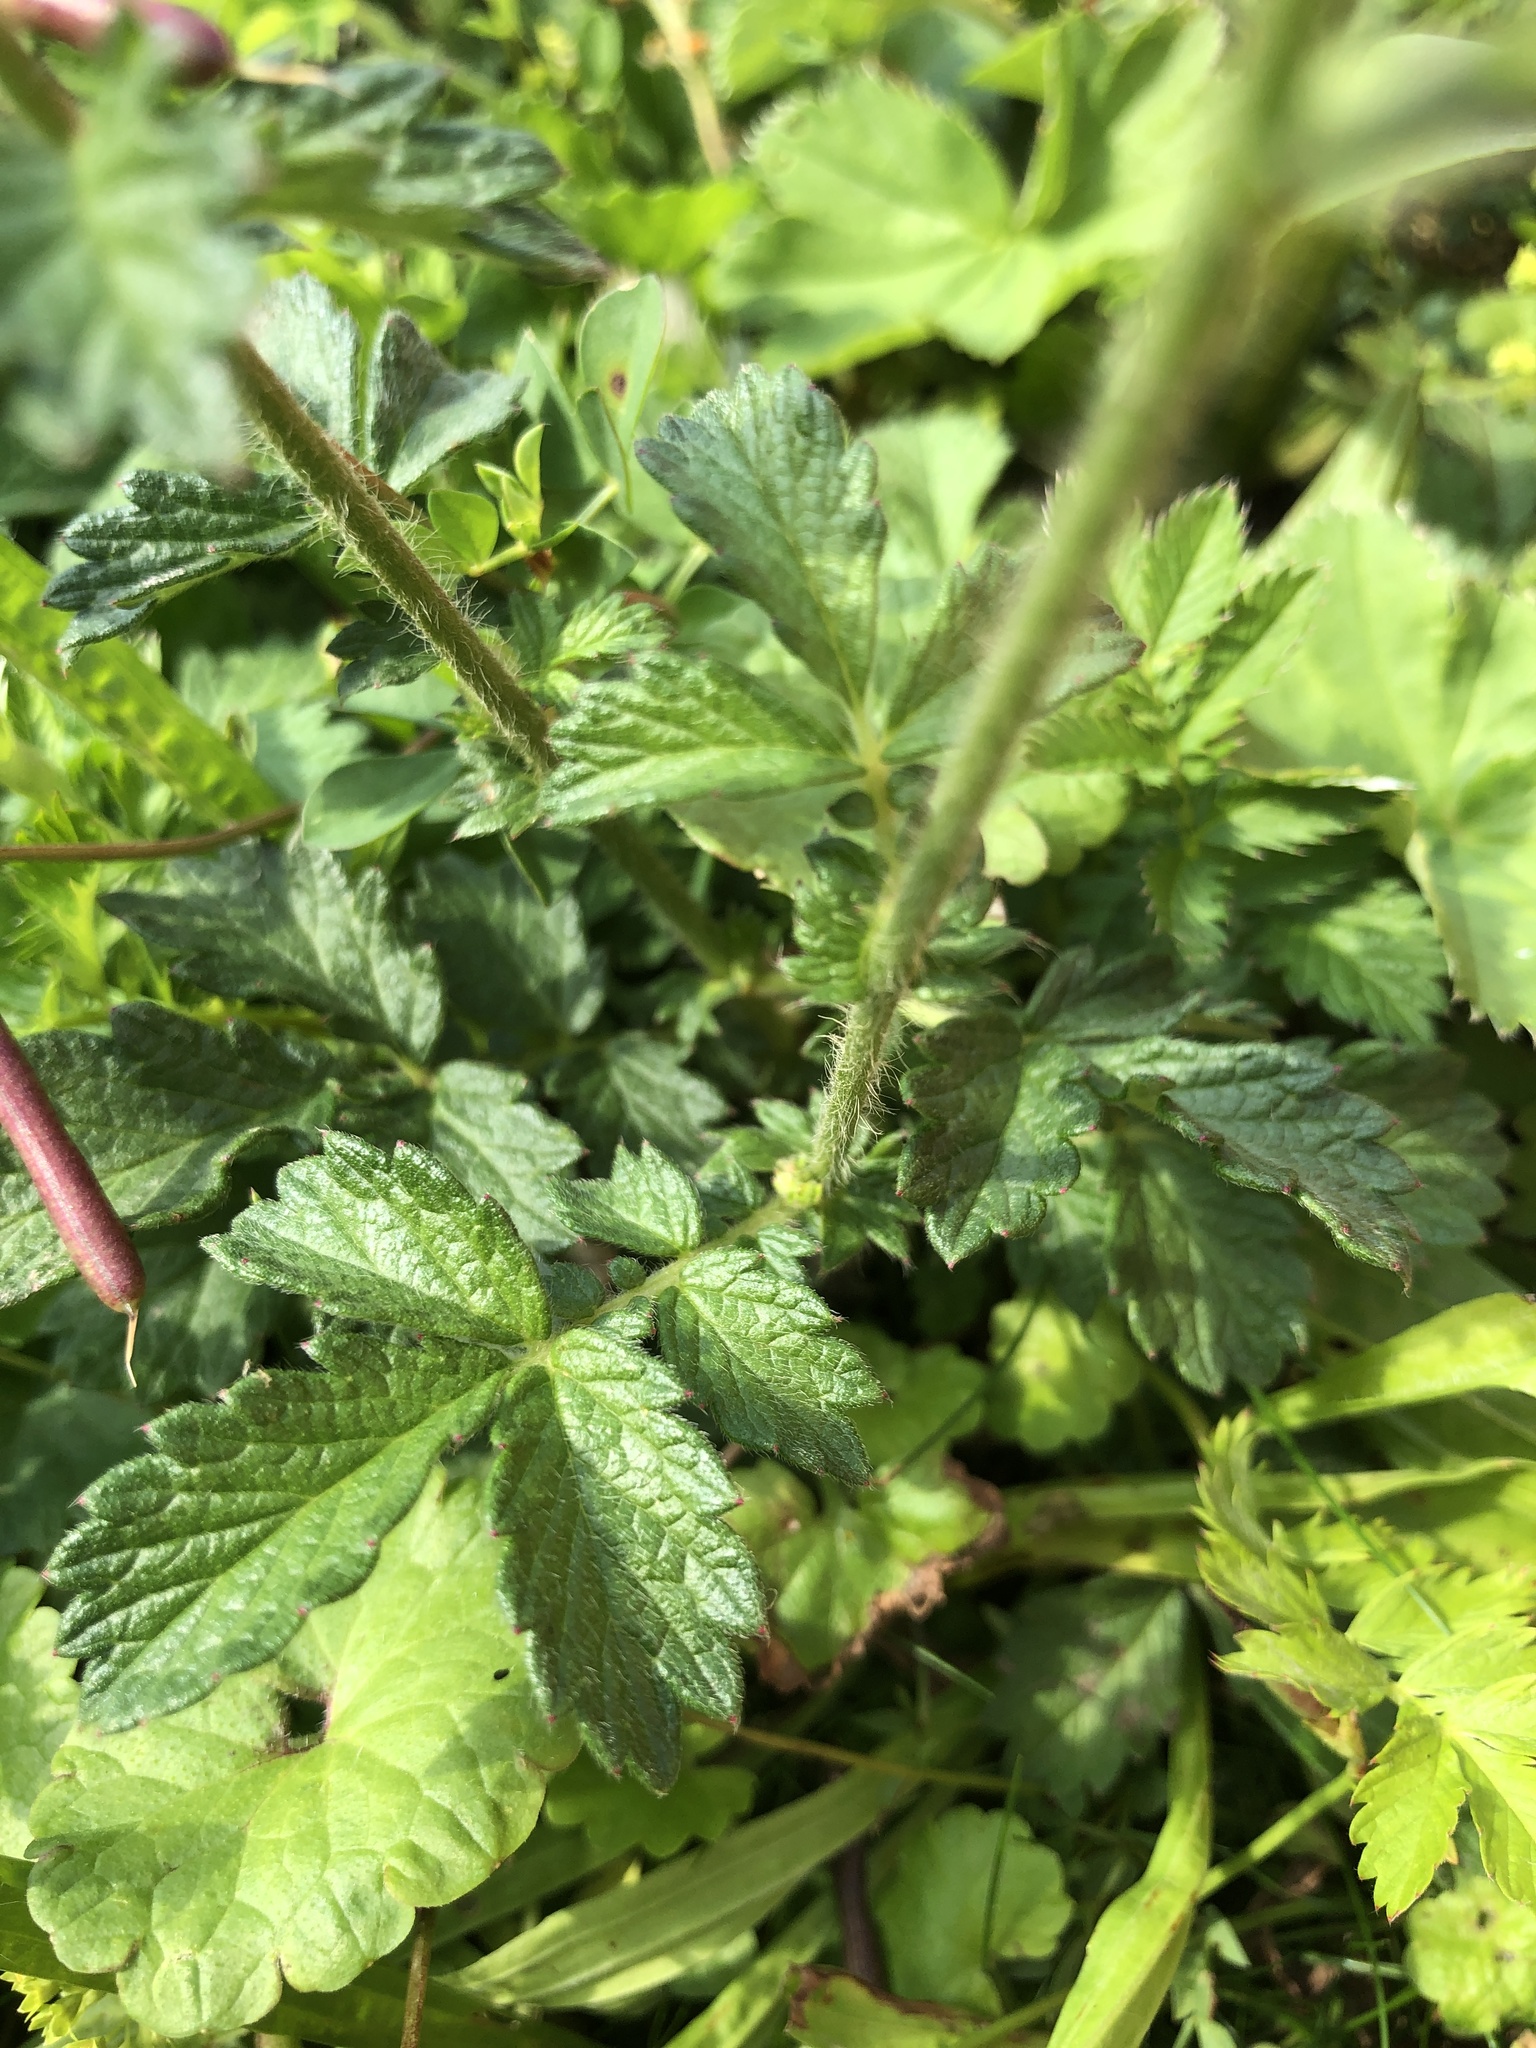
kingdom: Plantae
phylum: Tracheophyta
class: Magnoliopsida
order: Rosales
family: Rosaceae
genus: Agrimonia
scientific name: Agrimonia eupatoria
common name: Agrimony
